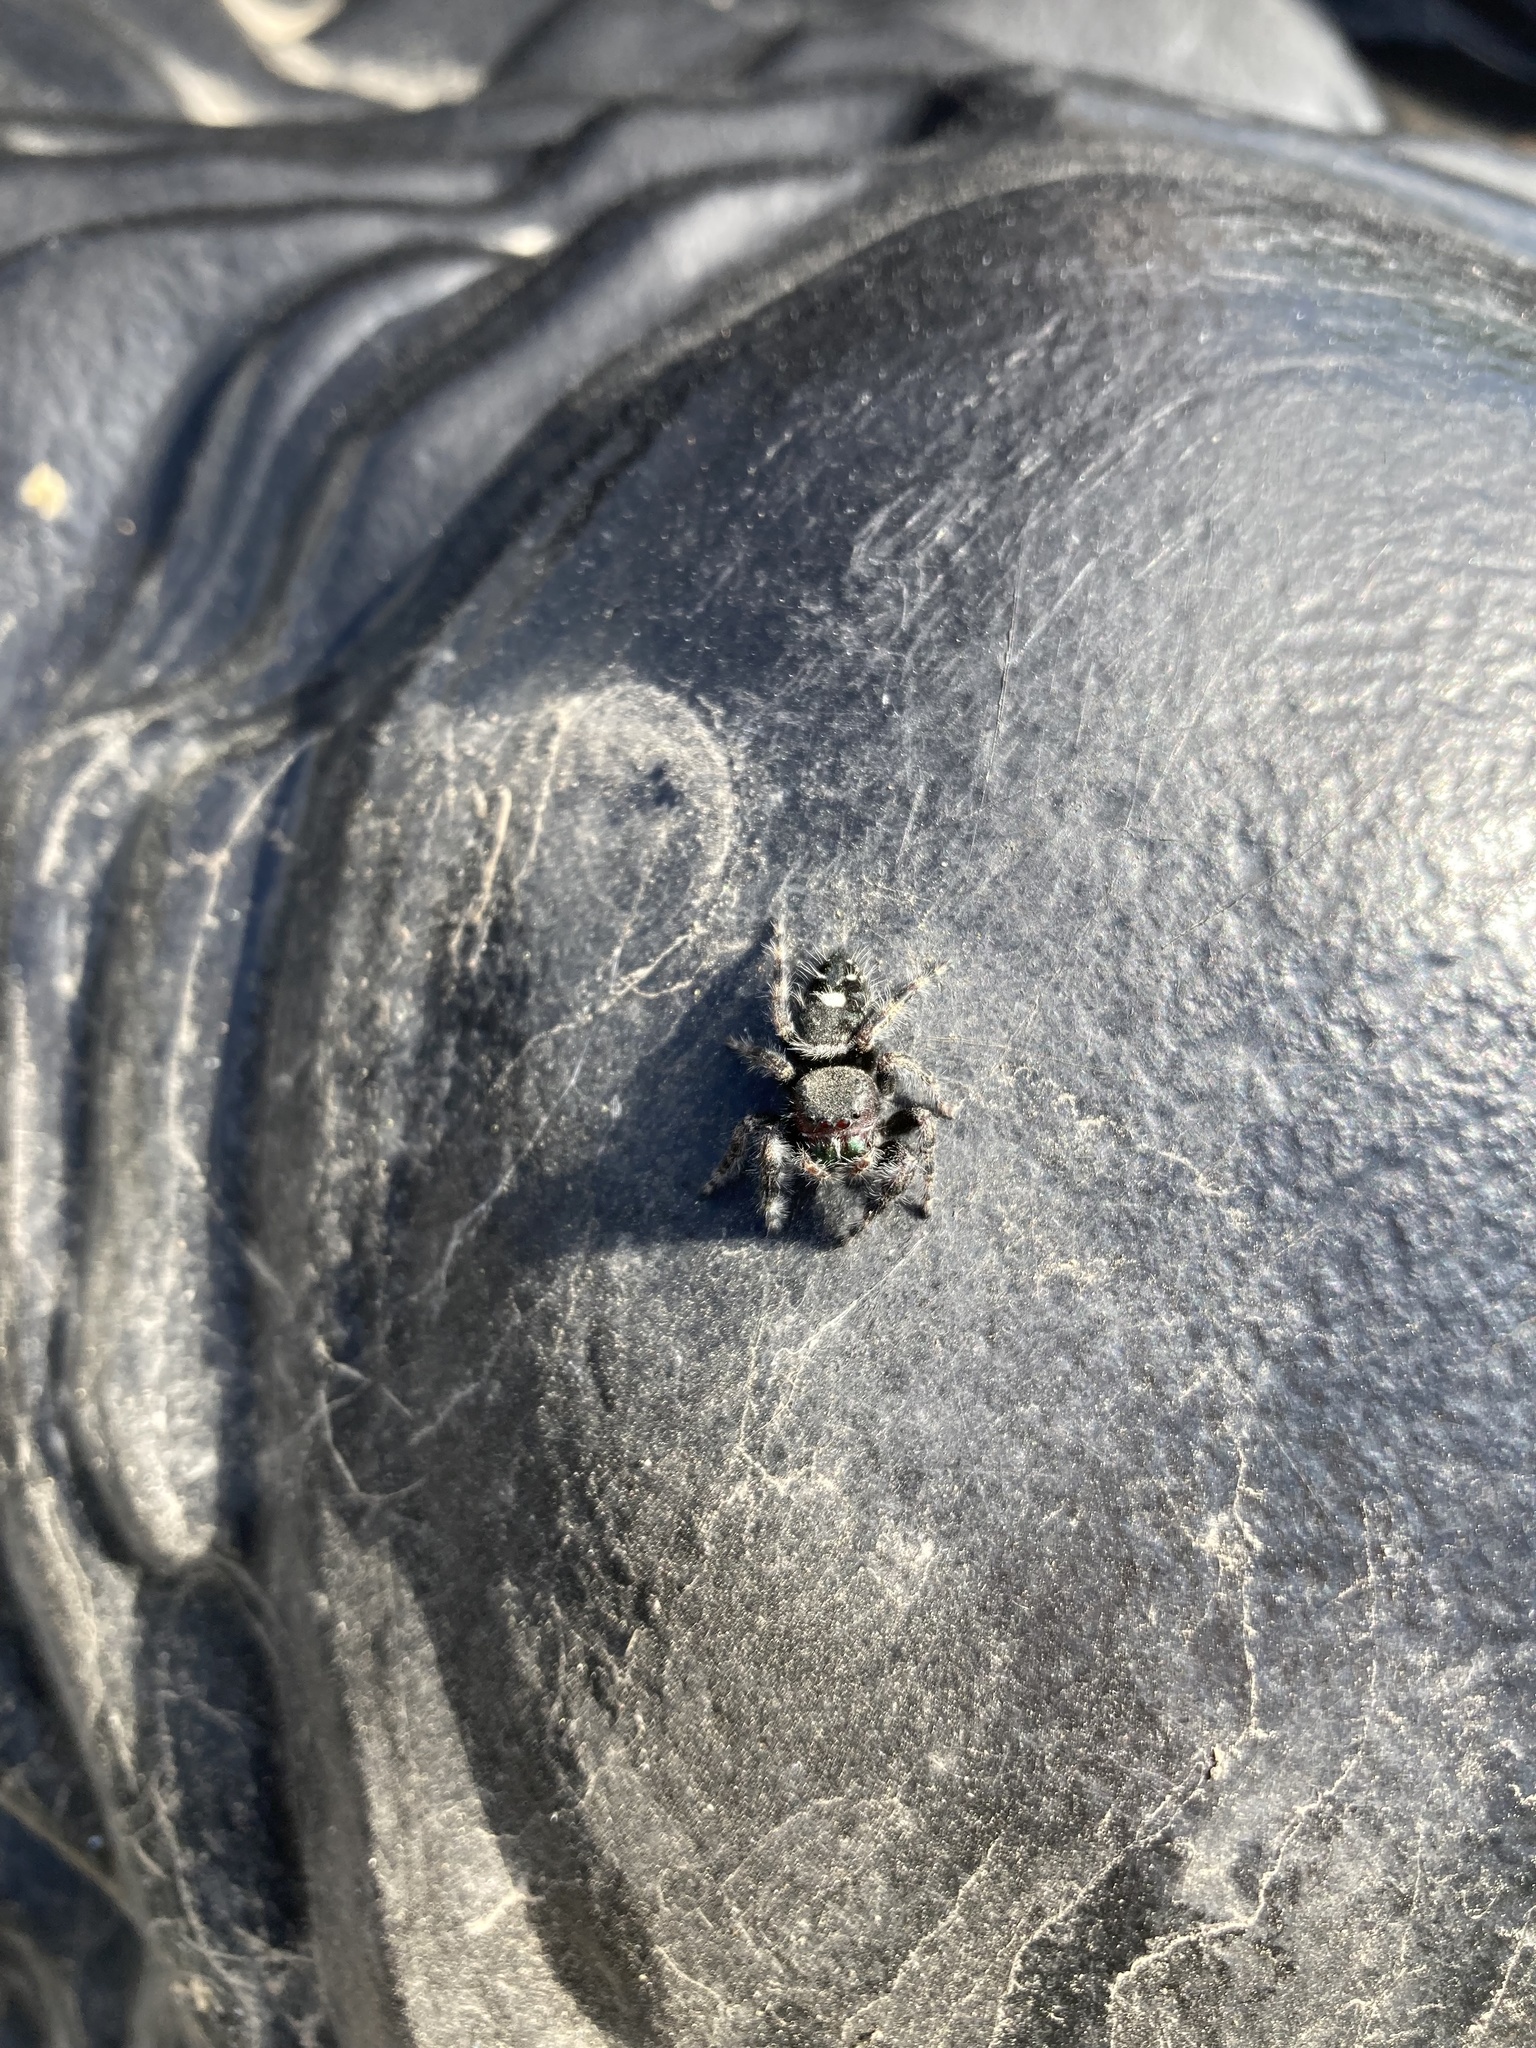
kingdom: Animalia
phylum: Arthropoda
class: Arachnida
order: Araneae
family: Salticidae
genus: Phidippus
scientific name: Phidippus audax
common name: Bold jumper
